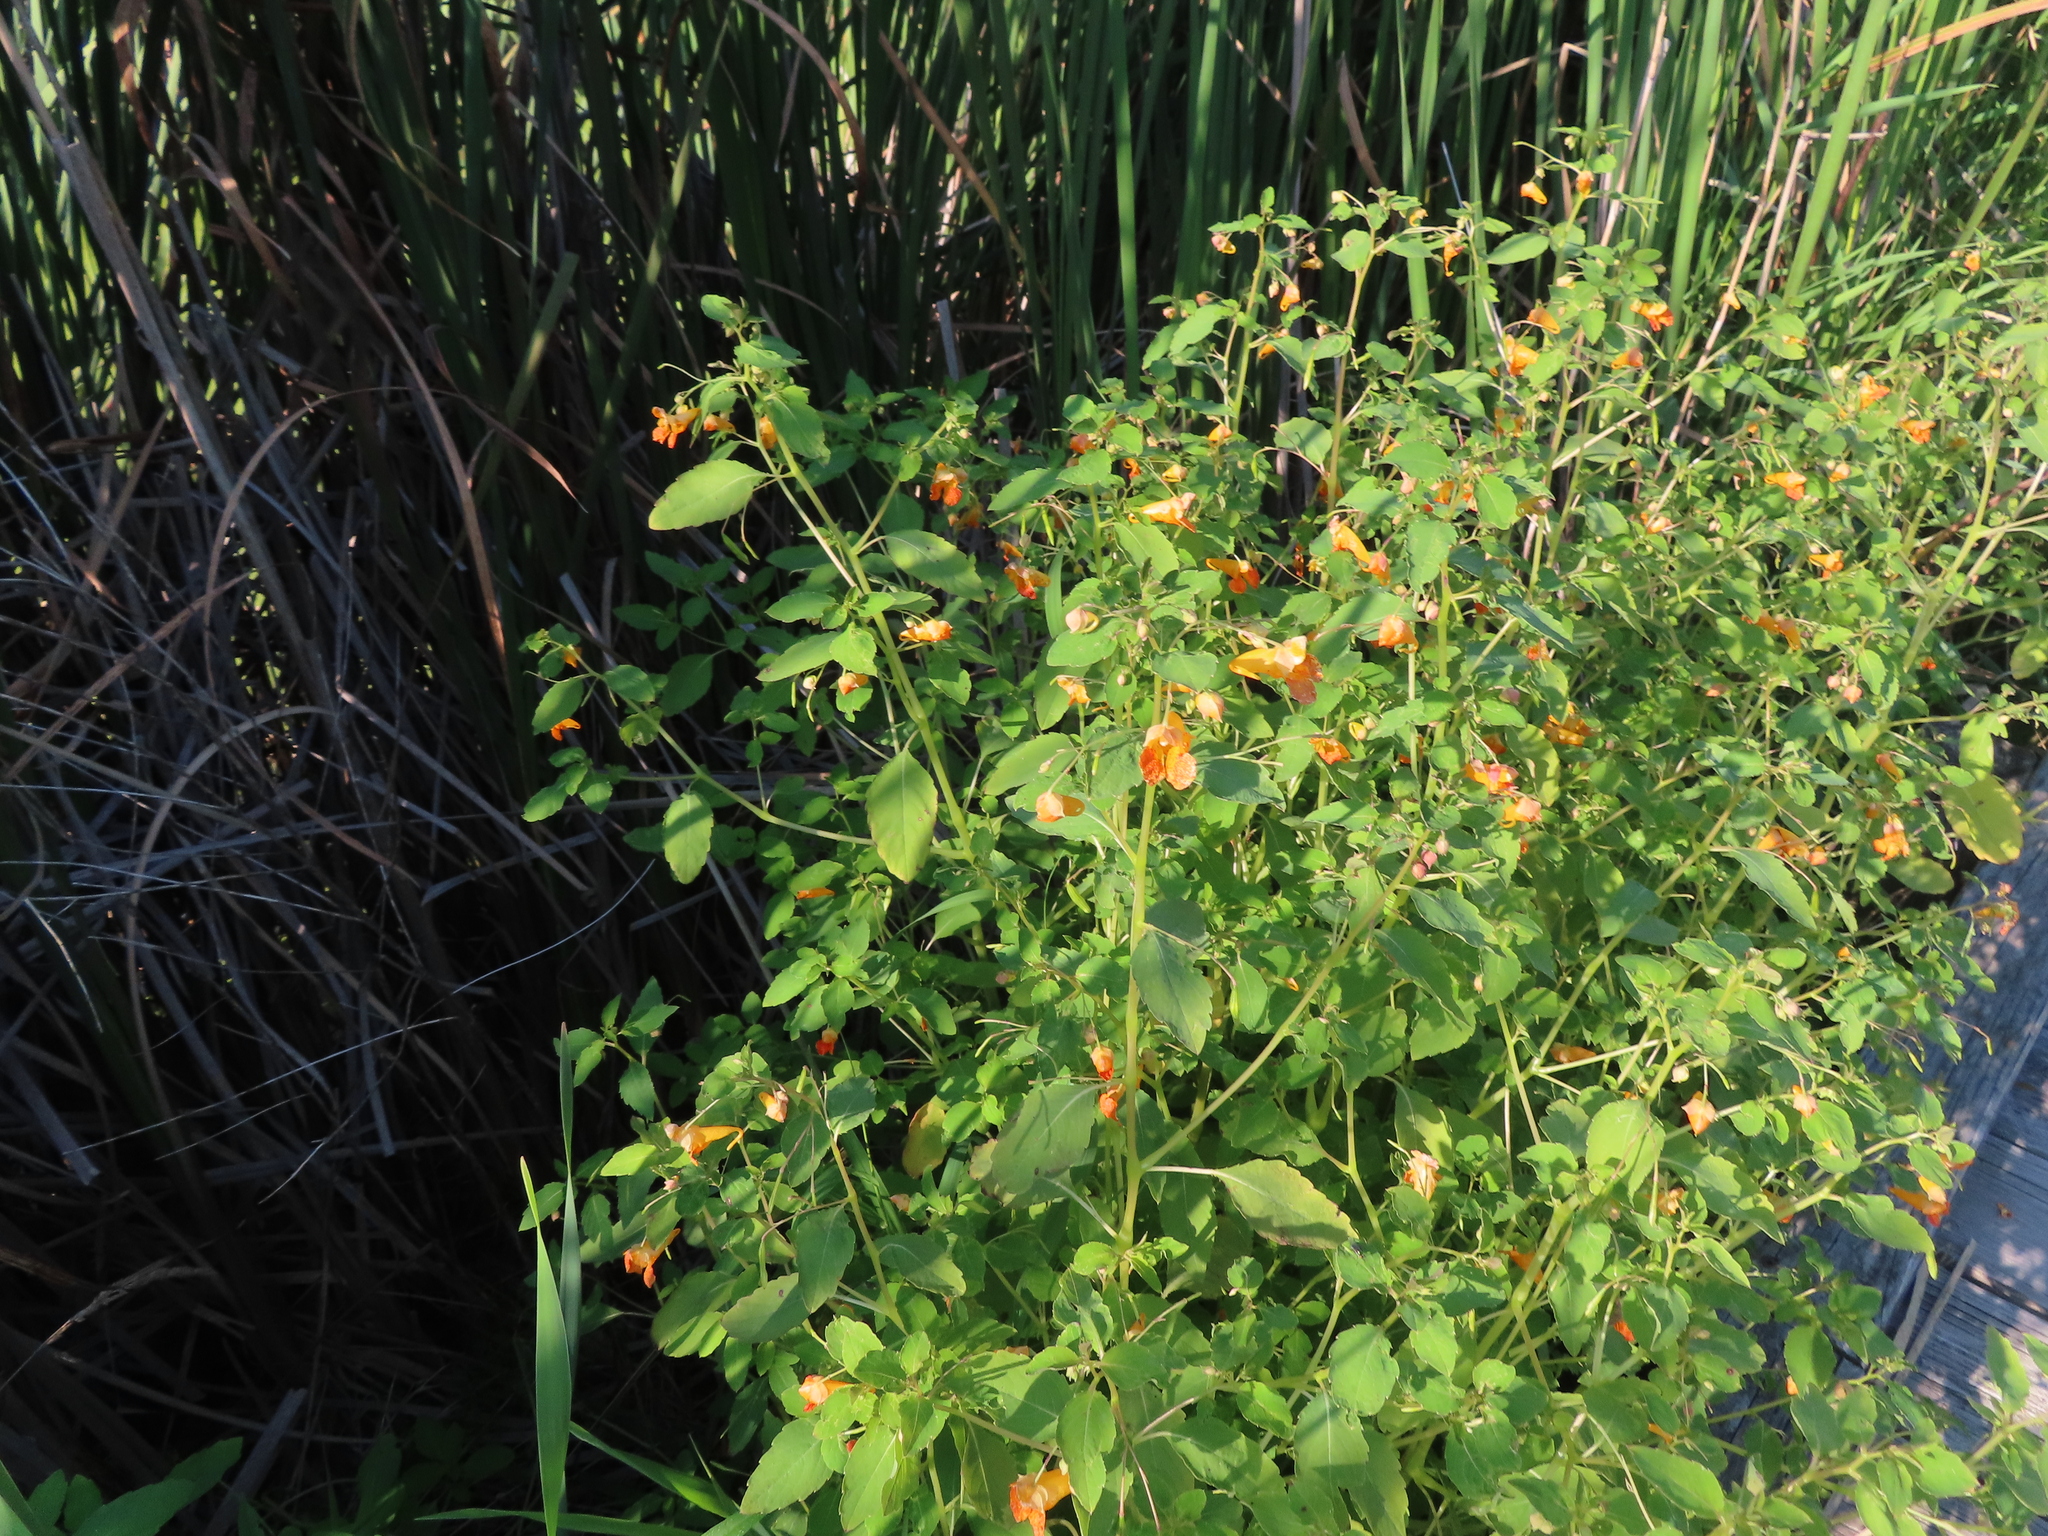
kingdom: Plantae
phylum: Tracheophyta
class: Magnoliopsida
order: Ericales
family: Balsaminaceae
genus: Impatiens
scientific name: Impatiens capensis
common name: Orange balsam
